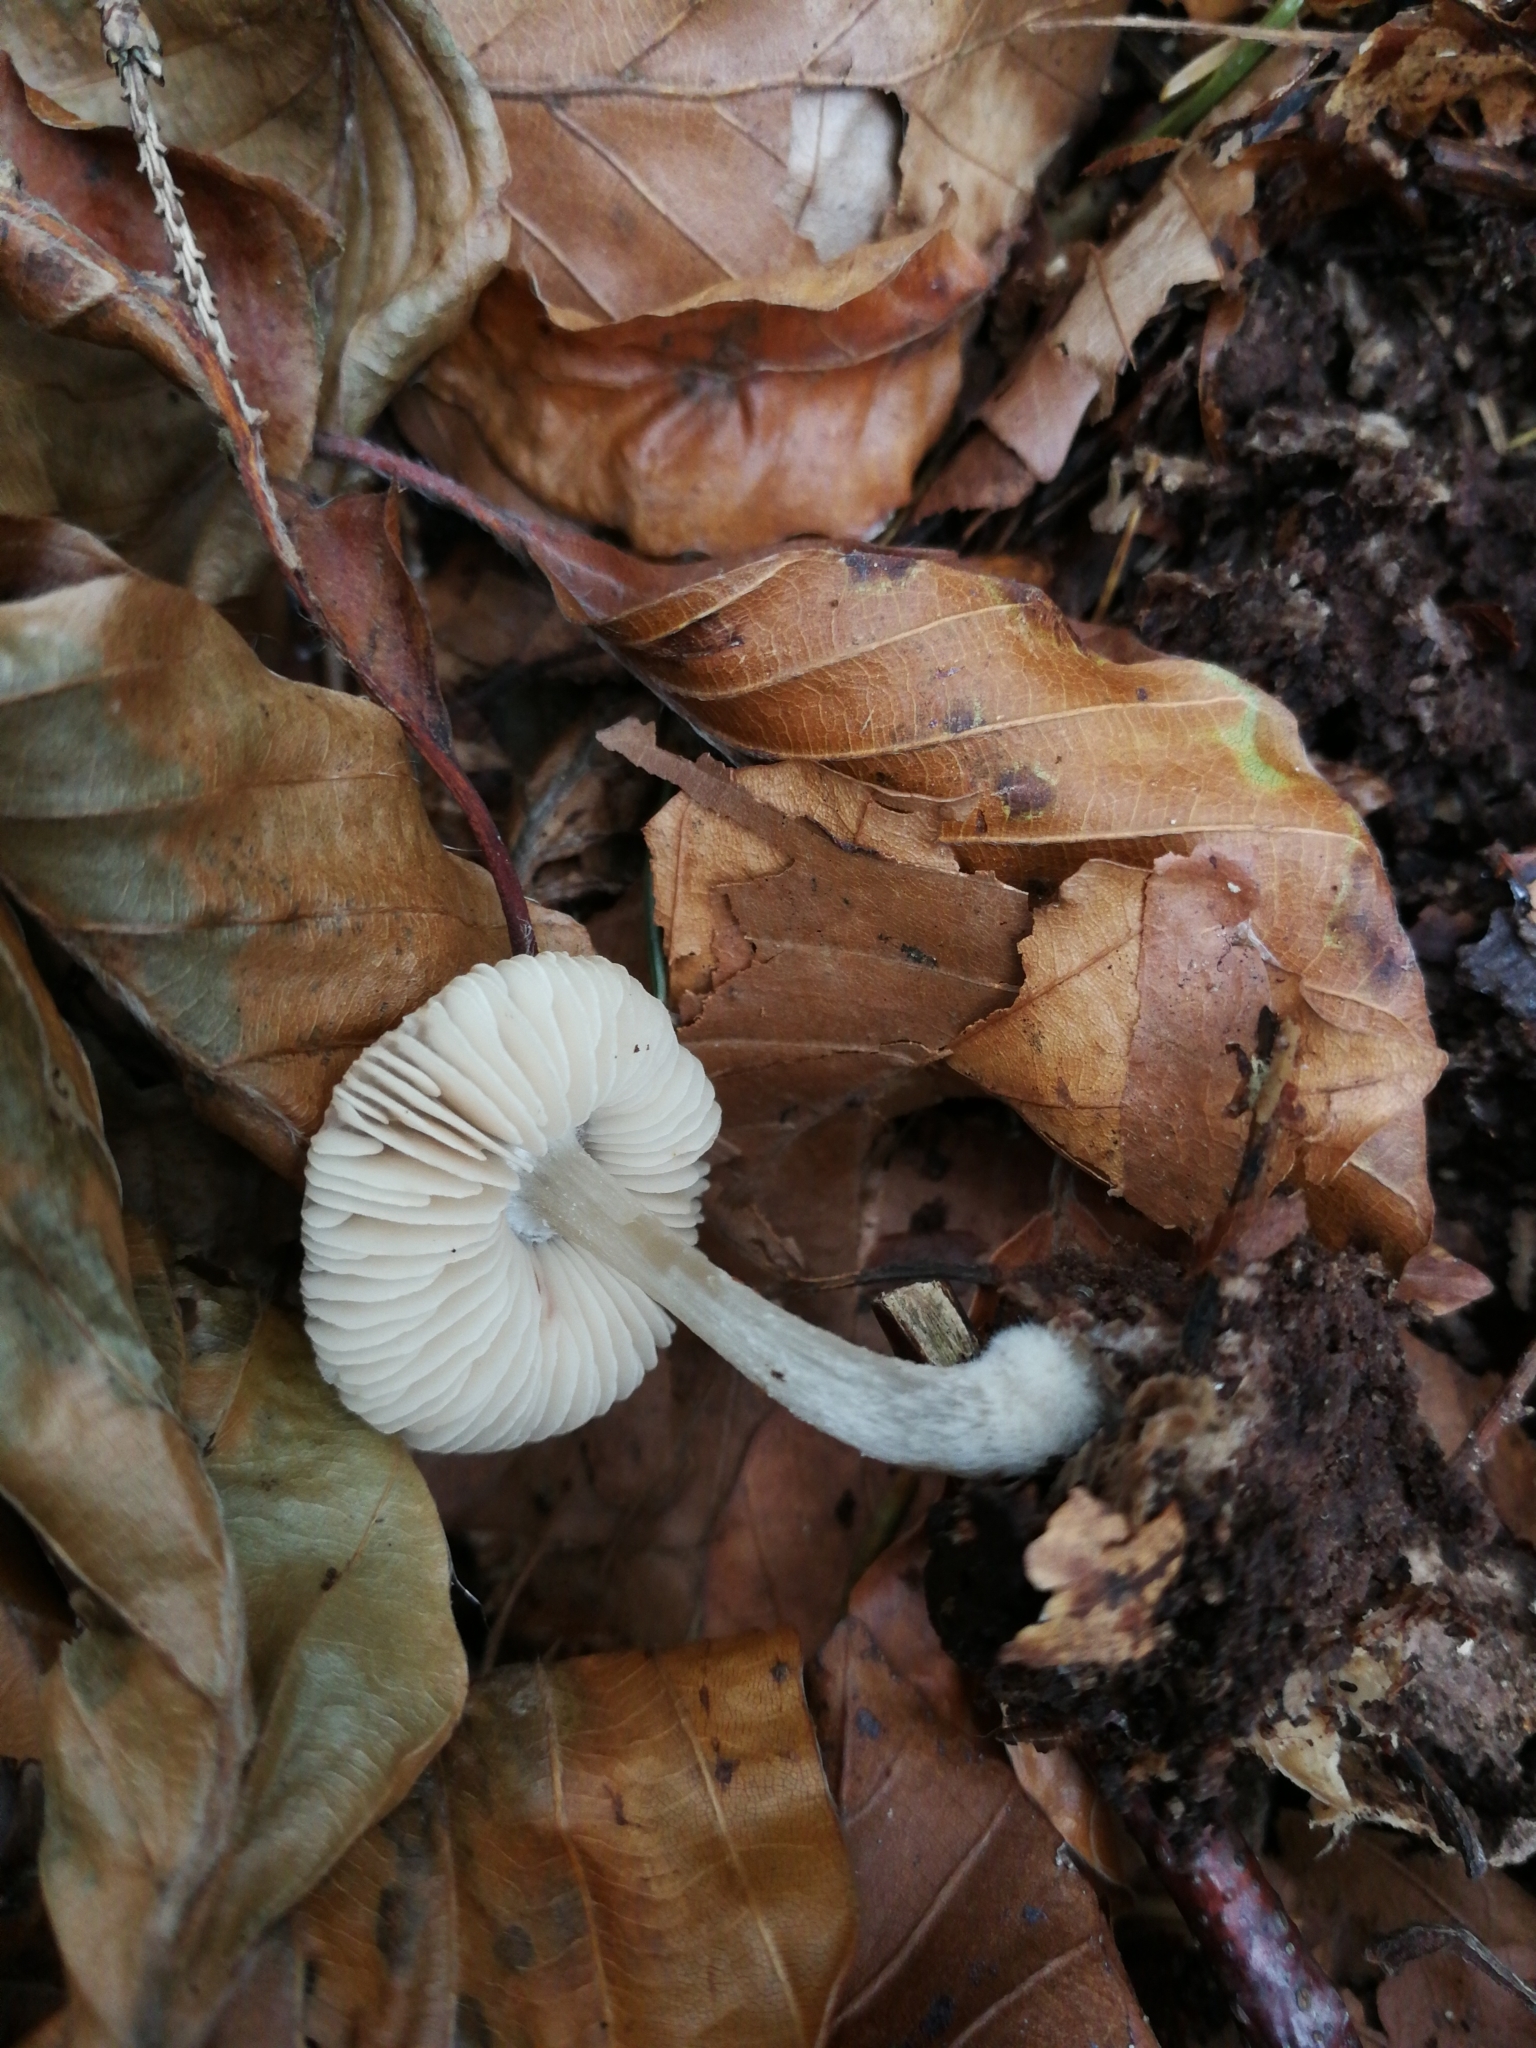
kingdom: Fungi
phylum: Basidiomycota
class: Agaricomycetes
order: Agaricales
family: Pluteaceae
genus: Pluteus
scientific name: Pluteus phlebophorus
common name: Wrinkled shield
